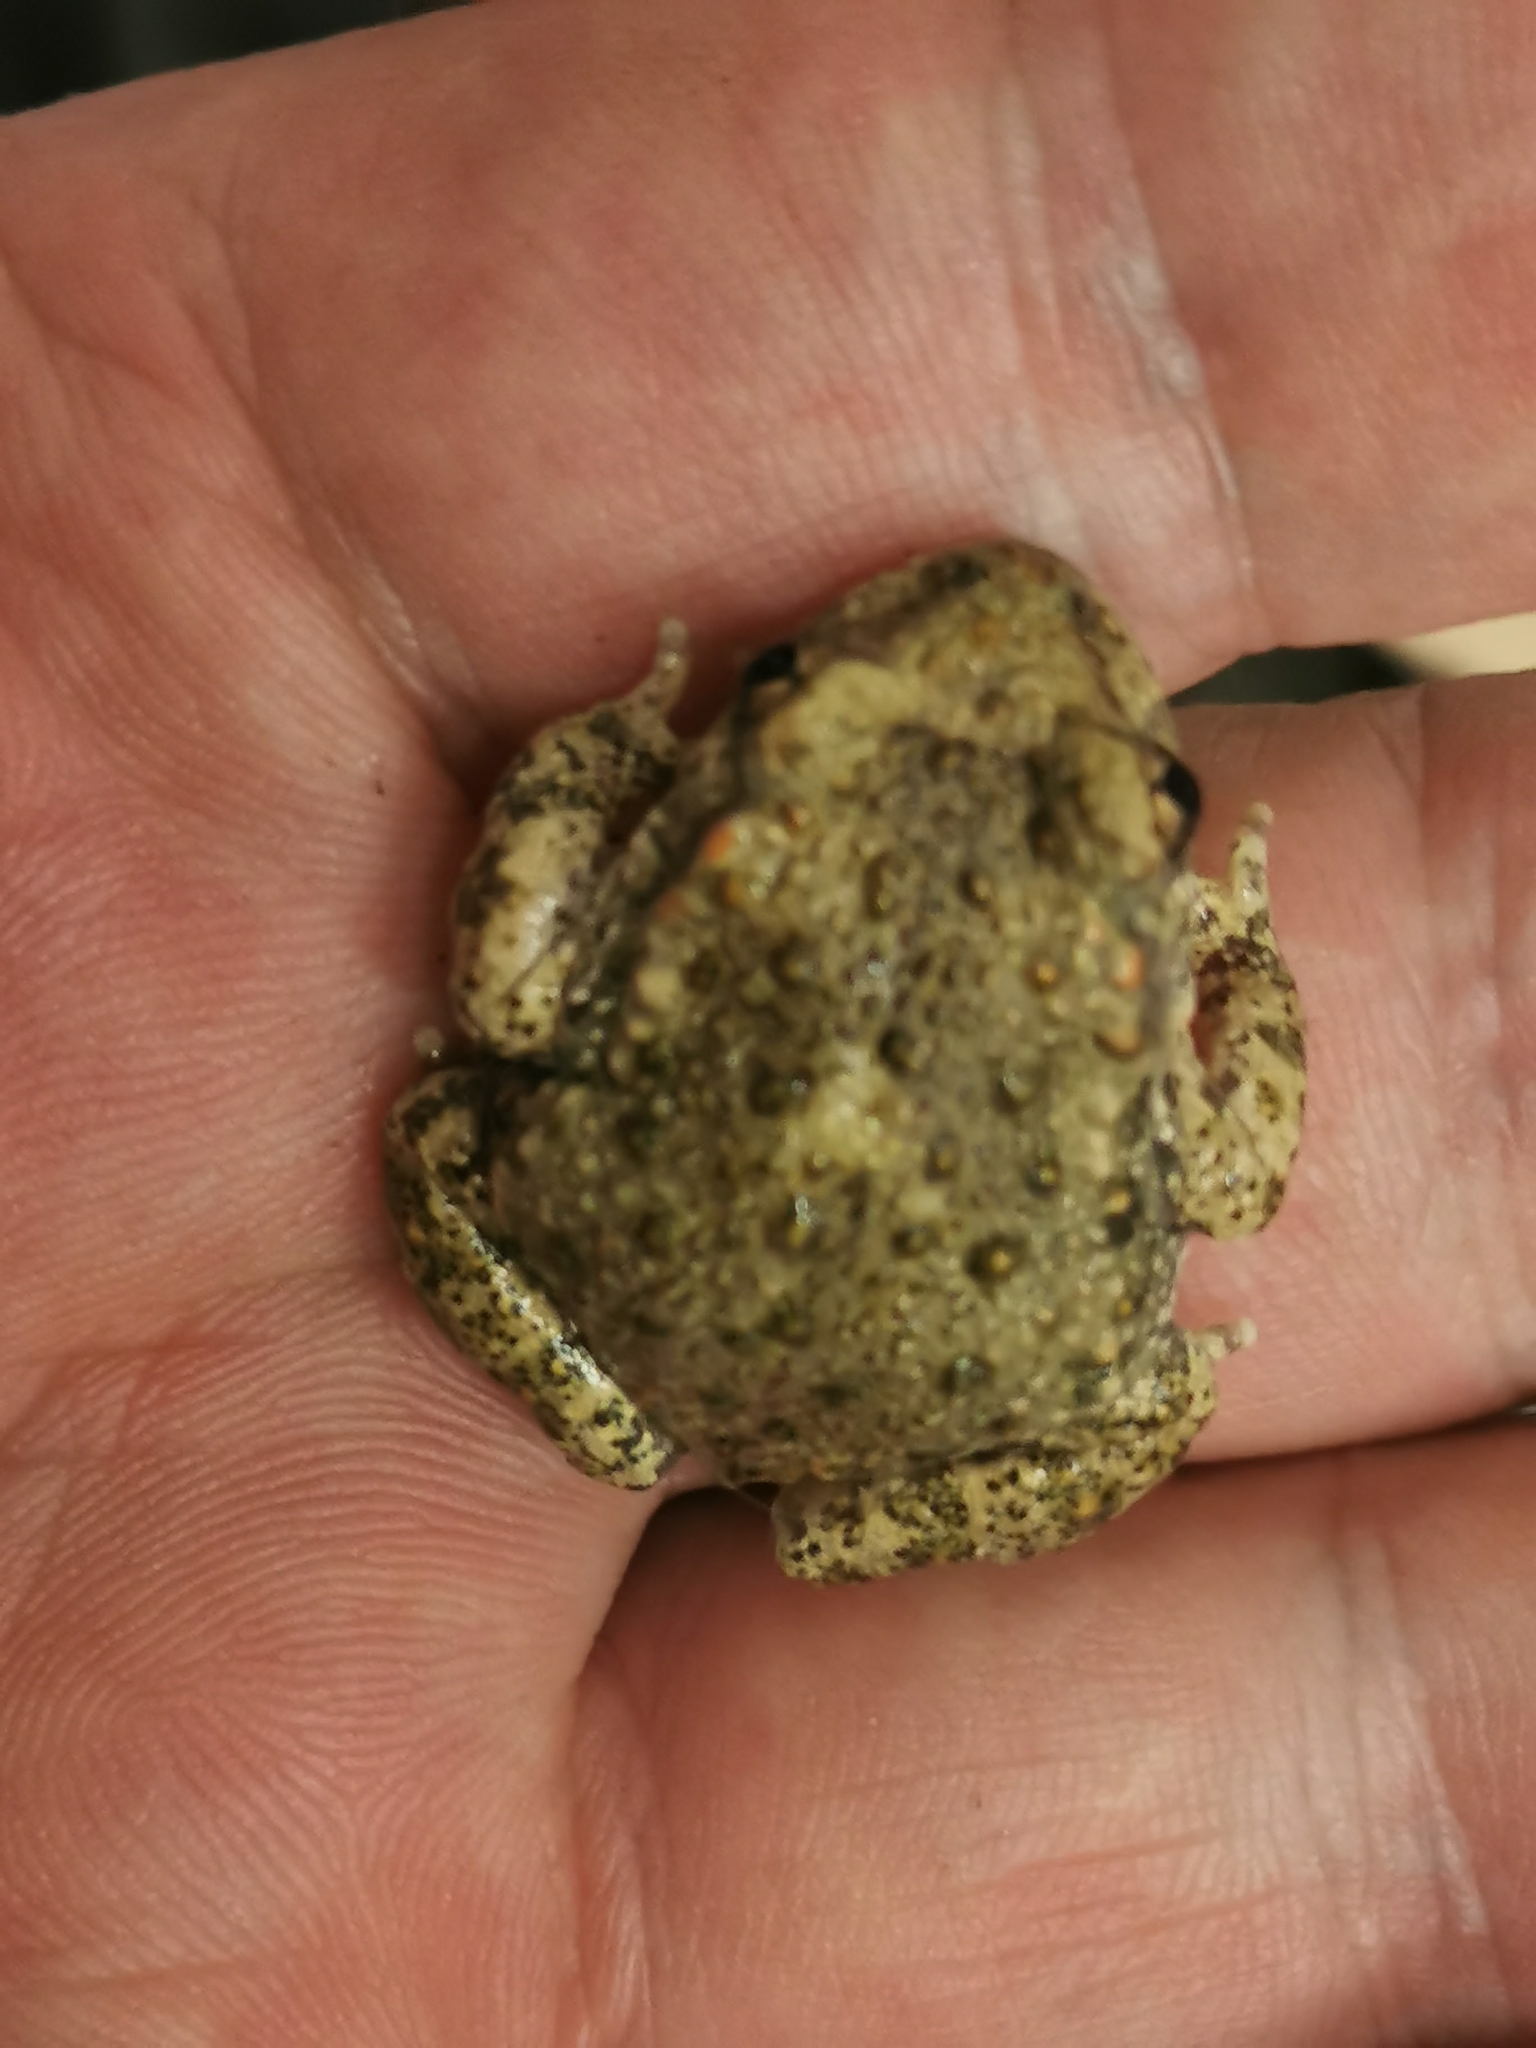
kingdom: Animalia
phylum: Chordata
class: Amphibia
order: Anura
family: Alytidae
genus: Alytes
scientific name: Alytes obstetricans
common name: Midwife toad
